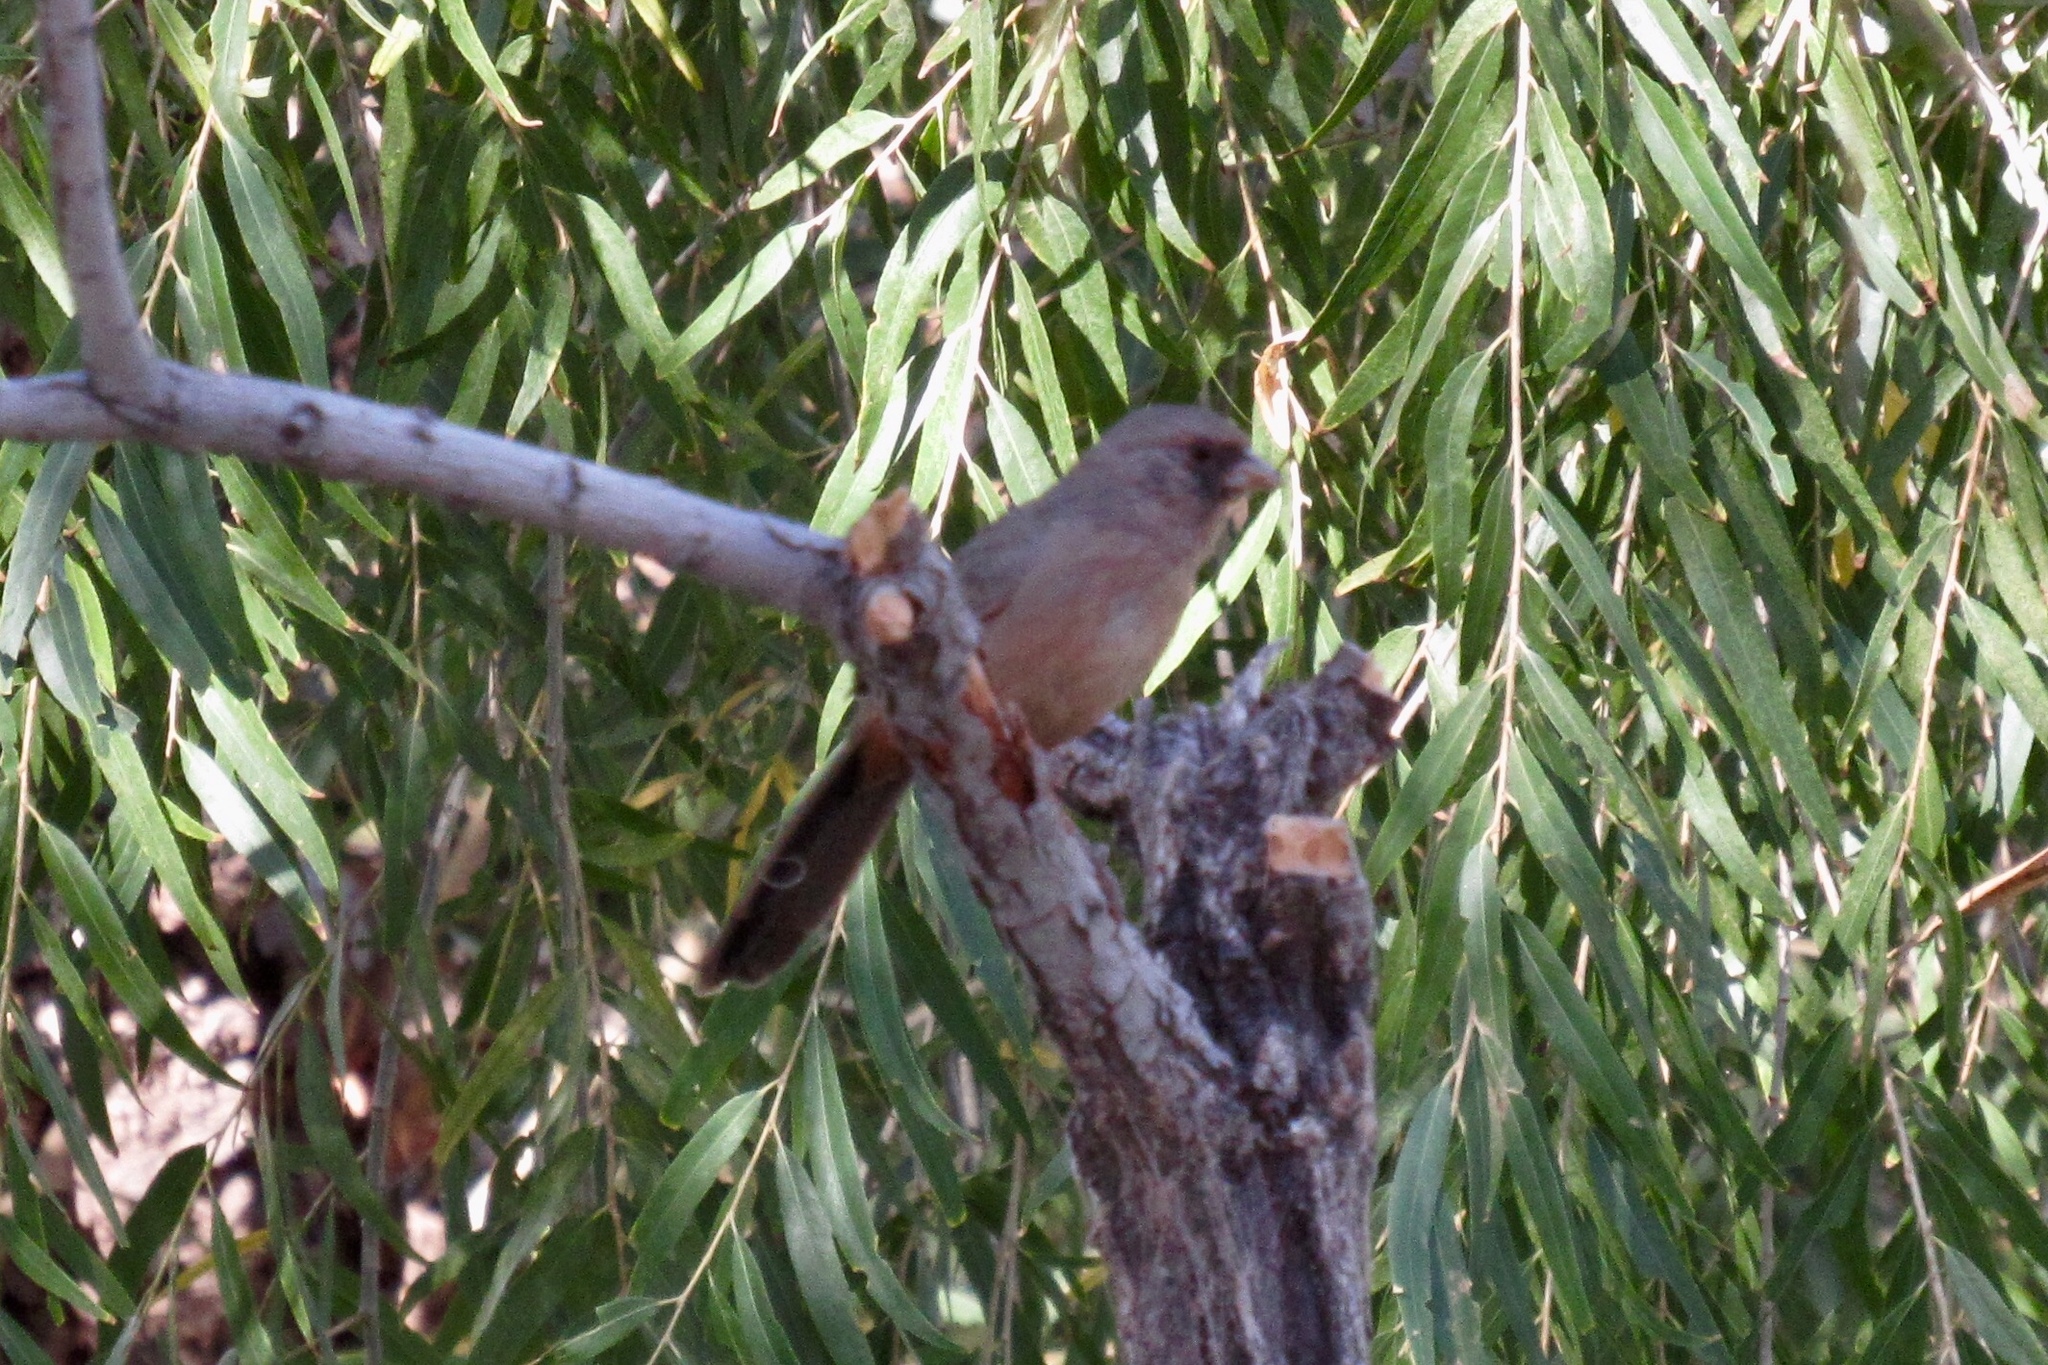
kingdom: Animalia
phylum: Chordata
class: Aves
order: Passeriformes
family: Passerellidae
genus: Melozone
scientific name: Melozone aberti
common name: Abert's towhee
